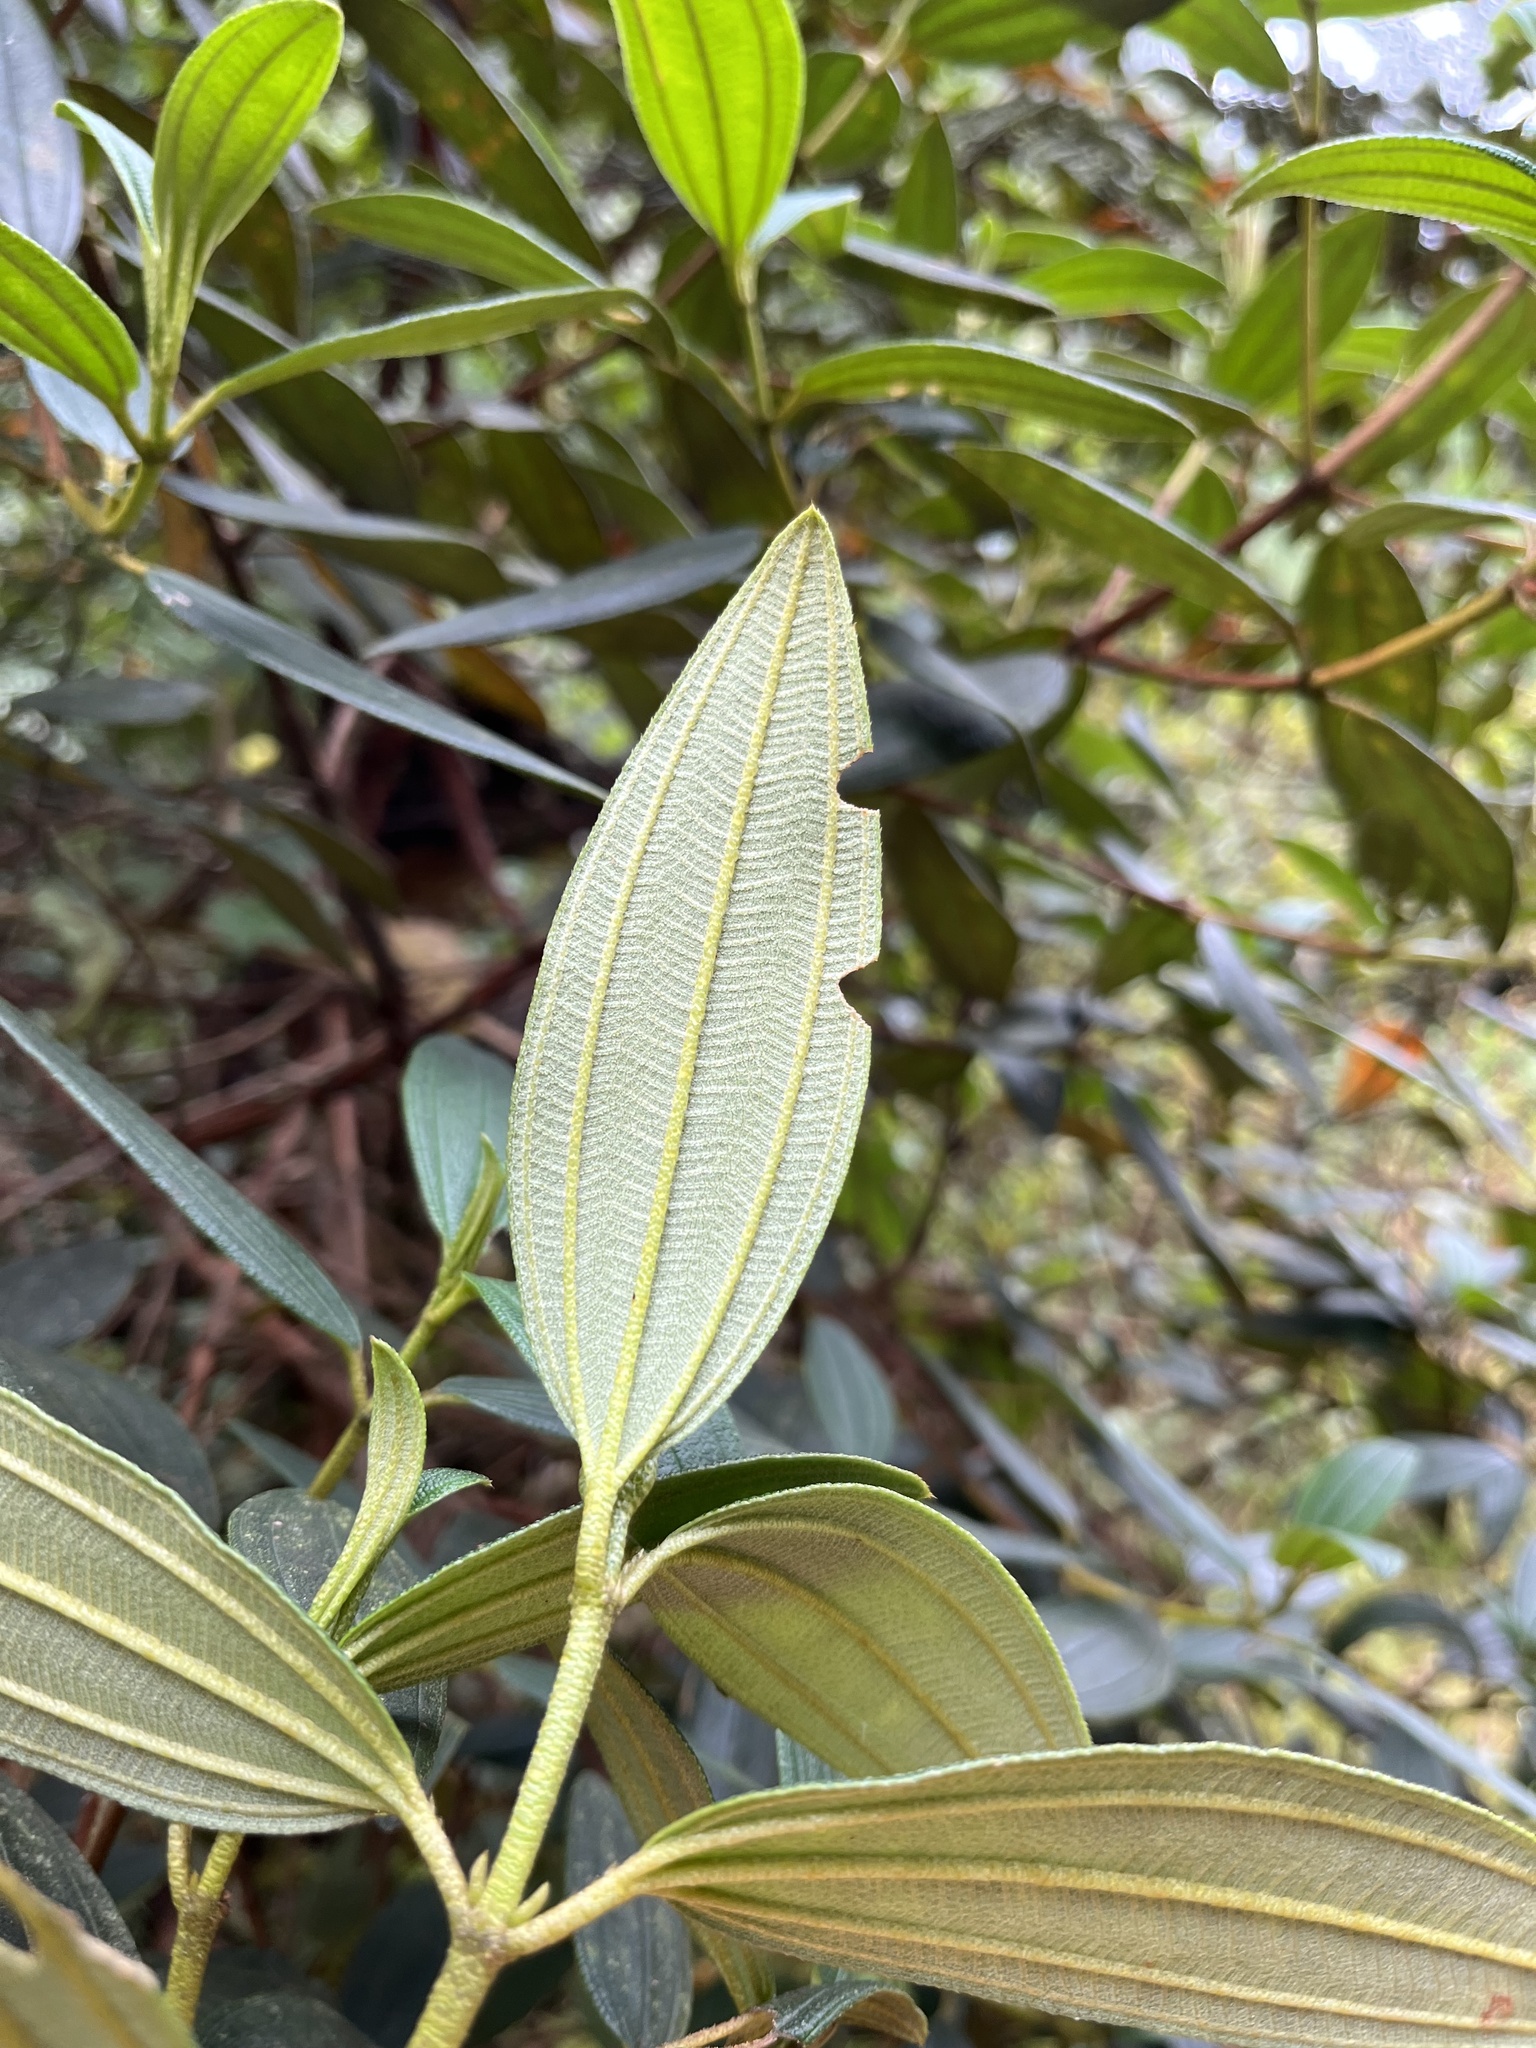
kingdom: Plantae
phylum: Tracheophyta
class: Magnoliopsida
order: Myrtales
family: Melastomataceae
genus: Andesanthus
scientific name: Andesanthus lepidotus
